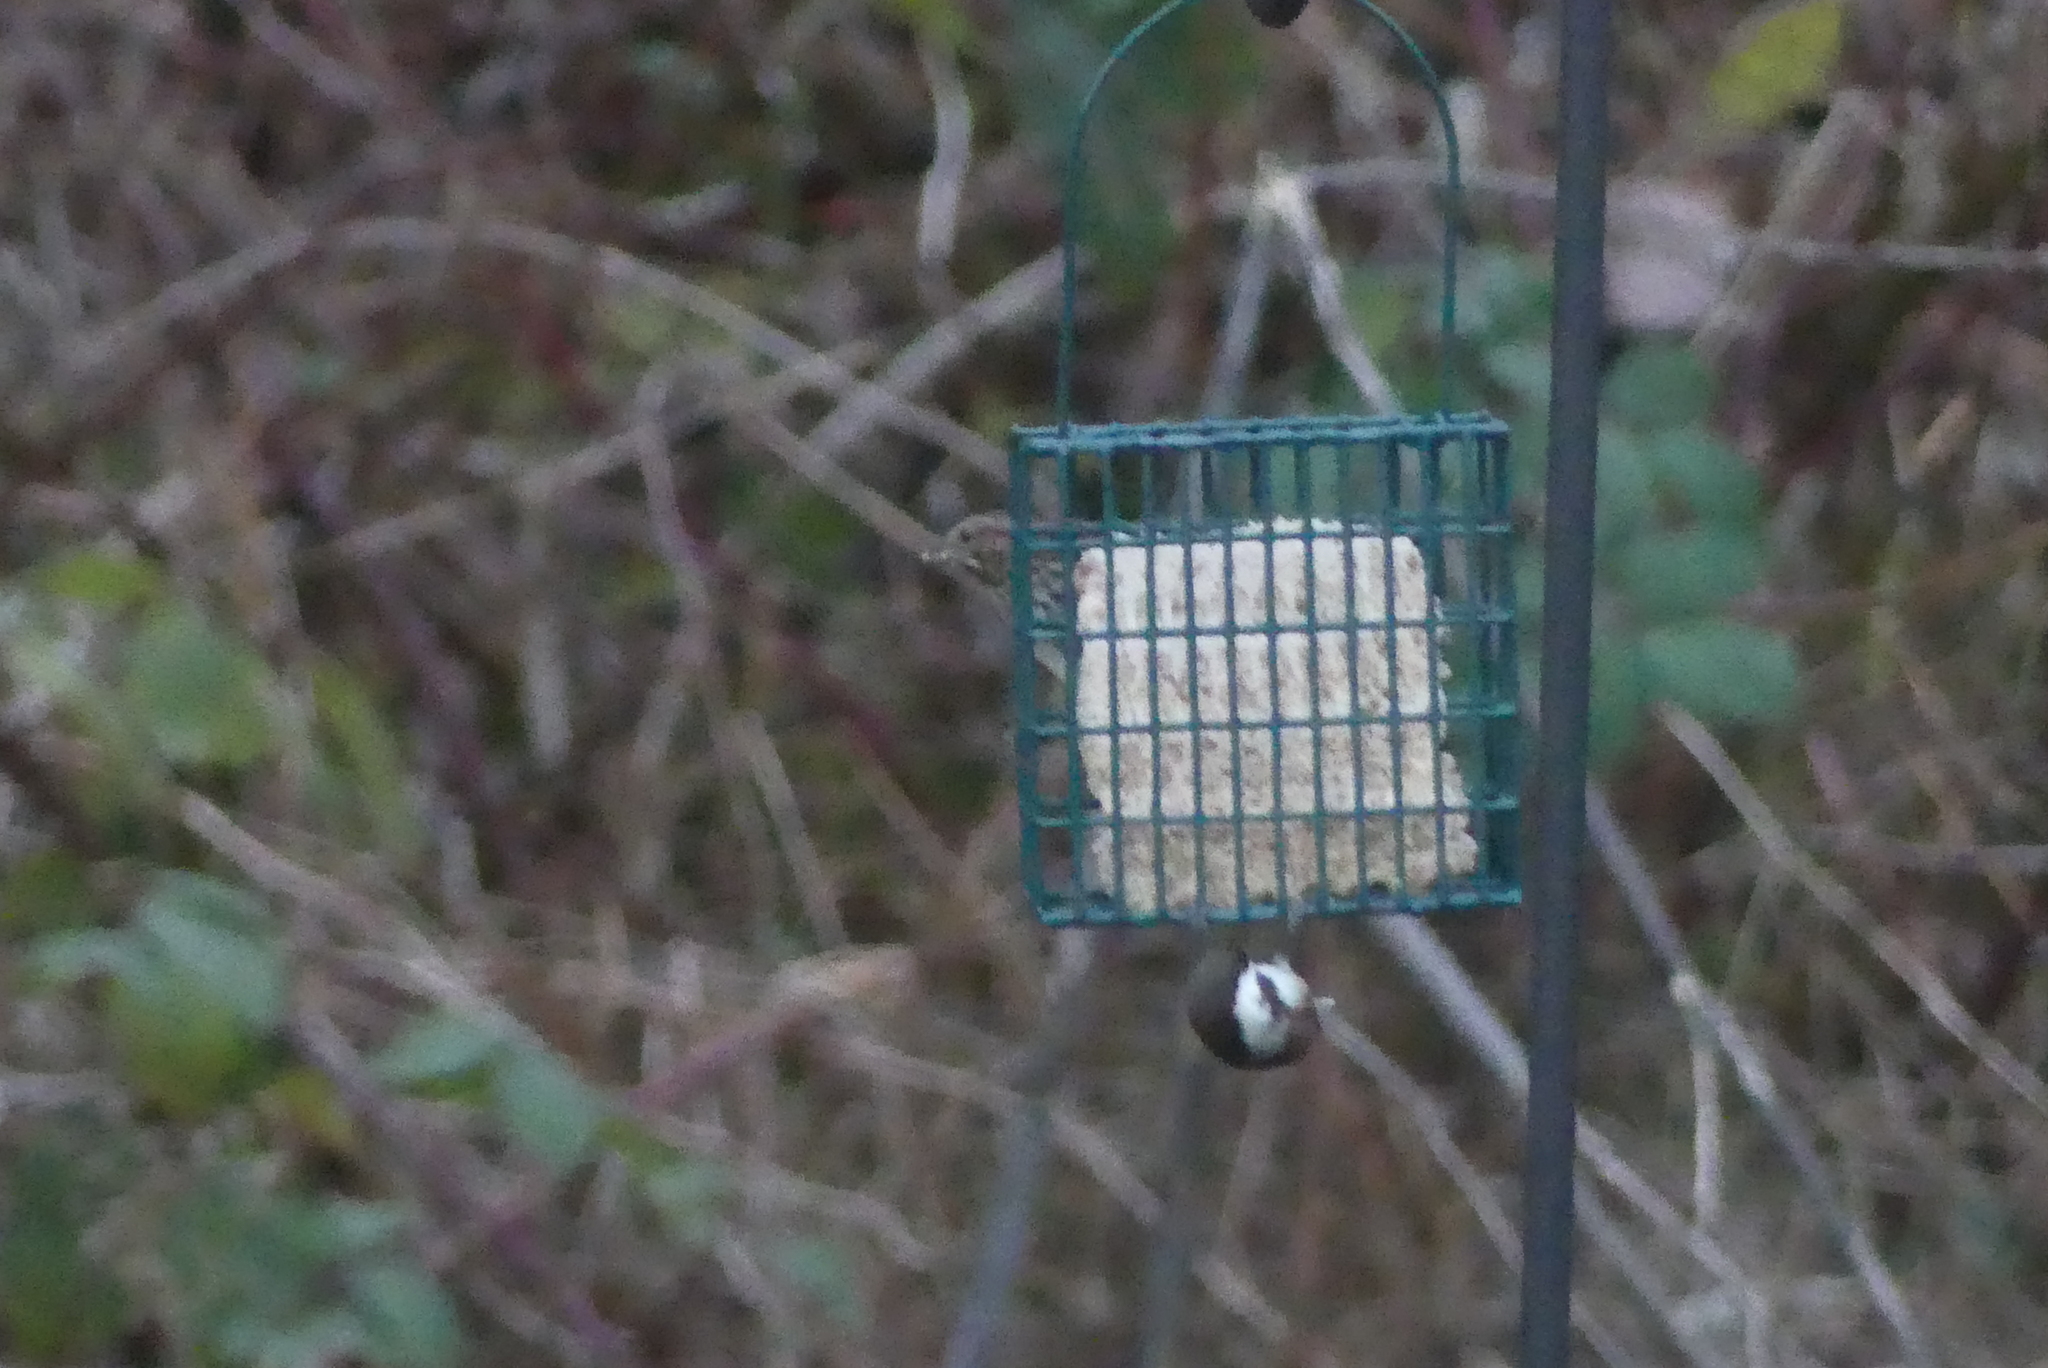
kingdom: Animalia
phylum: Chordata
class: Aves
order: Passeriformes
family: Passerellidae
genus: Melospiza
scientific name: Melospiza melodia
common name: Song sparrow
